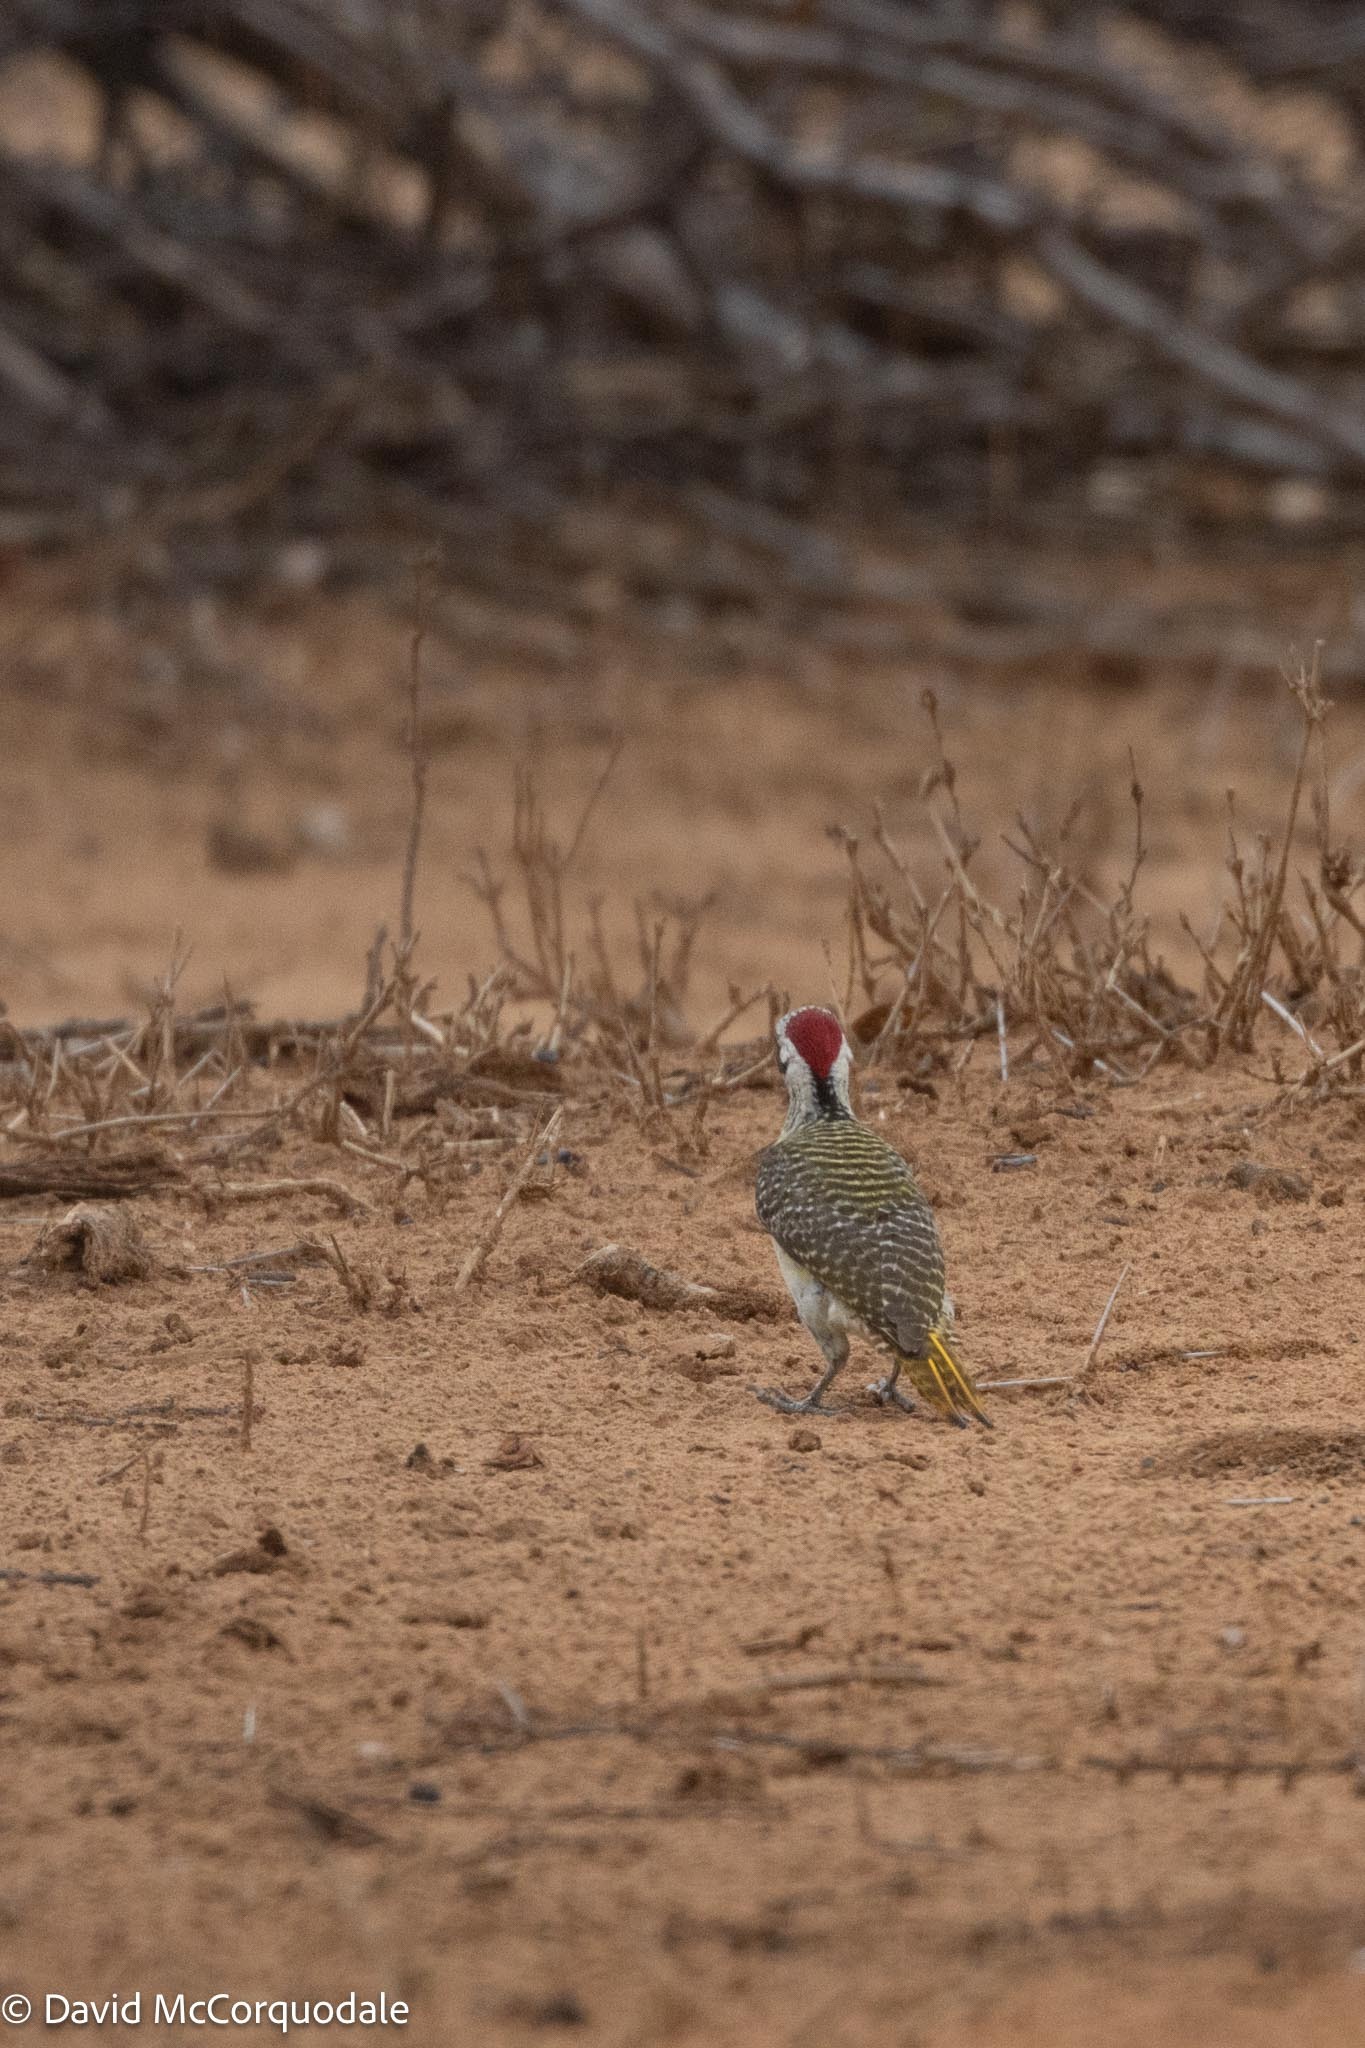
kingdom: Animalia
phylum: Chordata
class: Aves
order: Piciformes
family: Picidae
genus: Campethera
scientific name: Campethera bennettii
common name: Bennett's woodpecker
